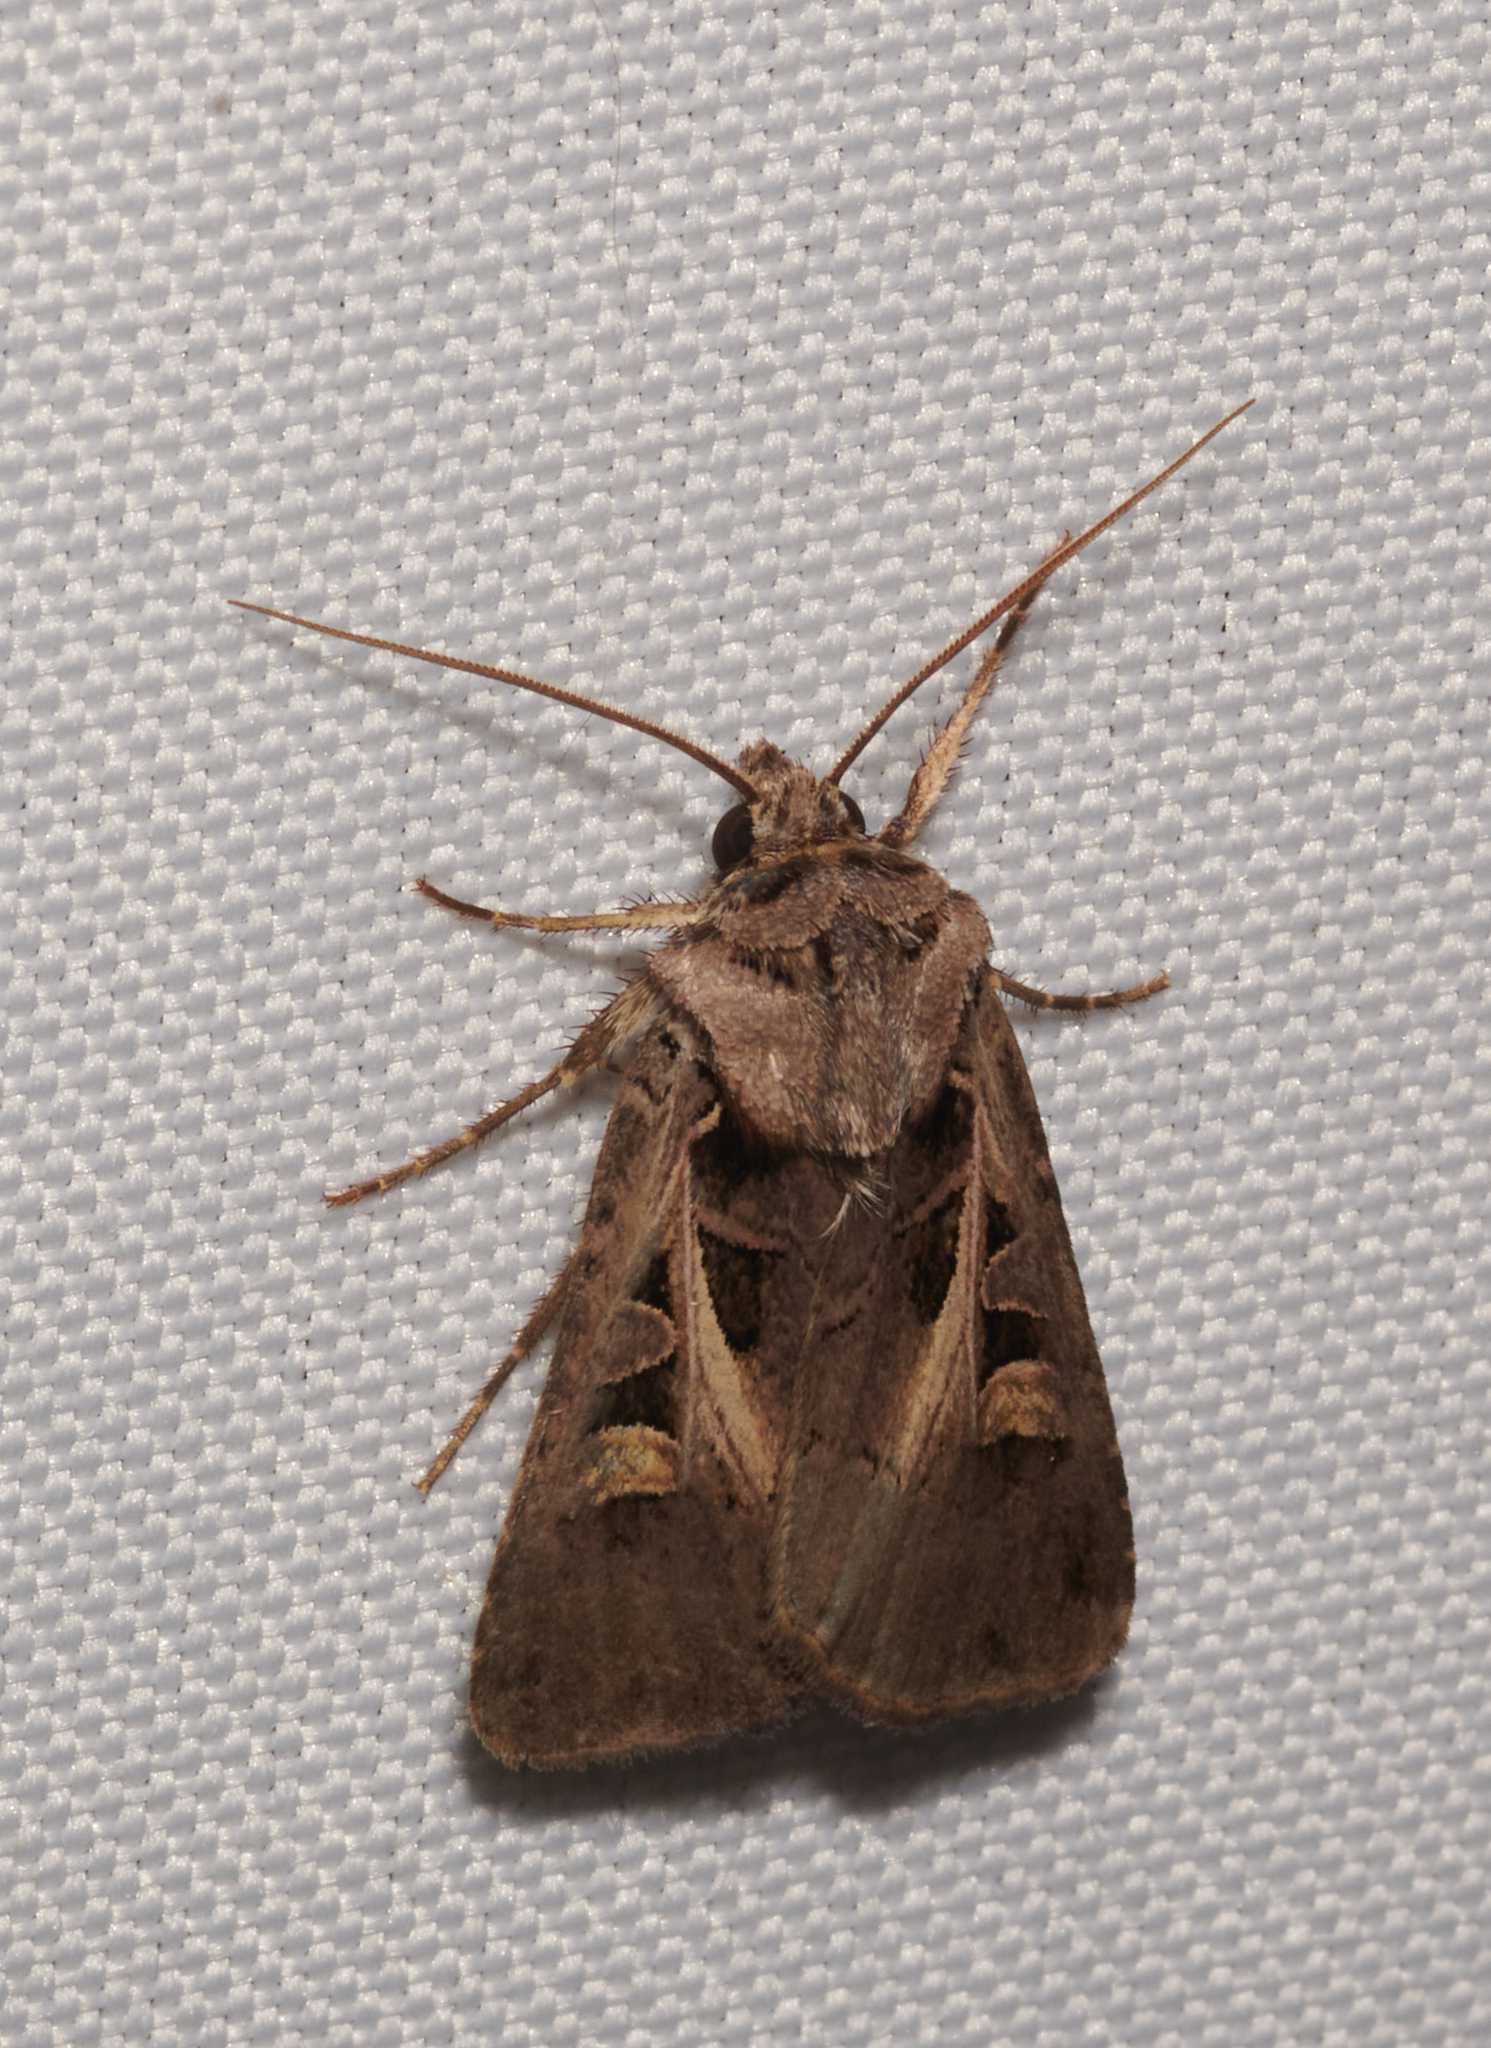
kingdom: Animalia
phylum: Arthropoda
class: Insecta
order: Lepidoptera
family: Noctuidae
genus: Feltia
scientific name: Feltia herilis
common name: Master's dart
